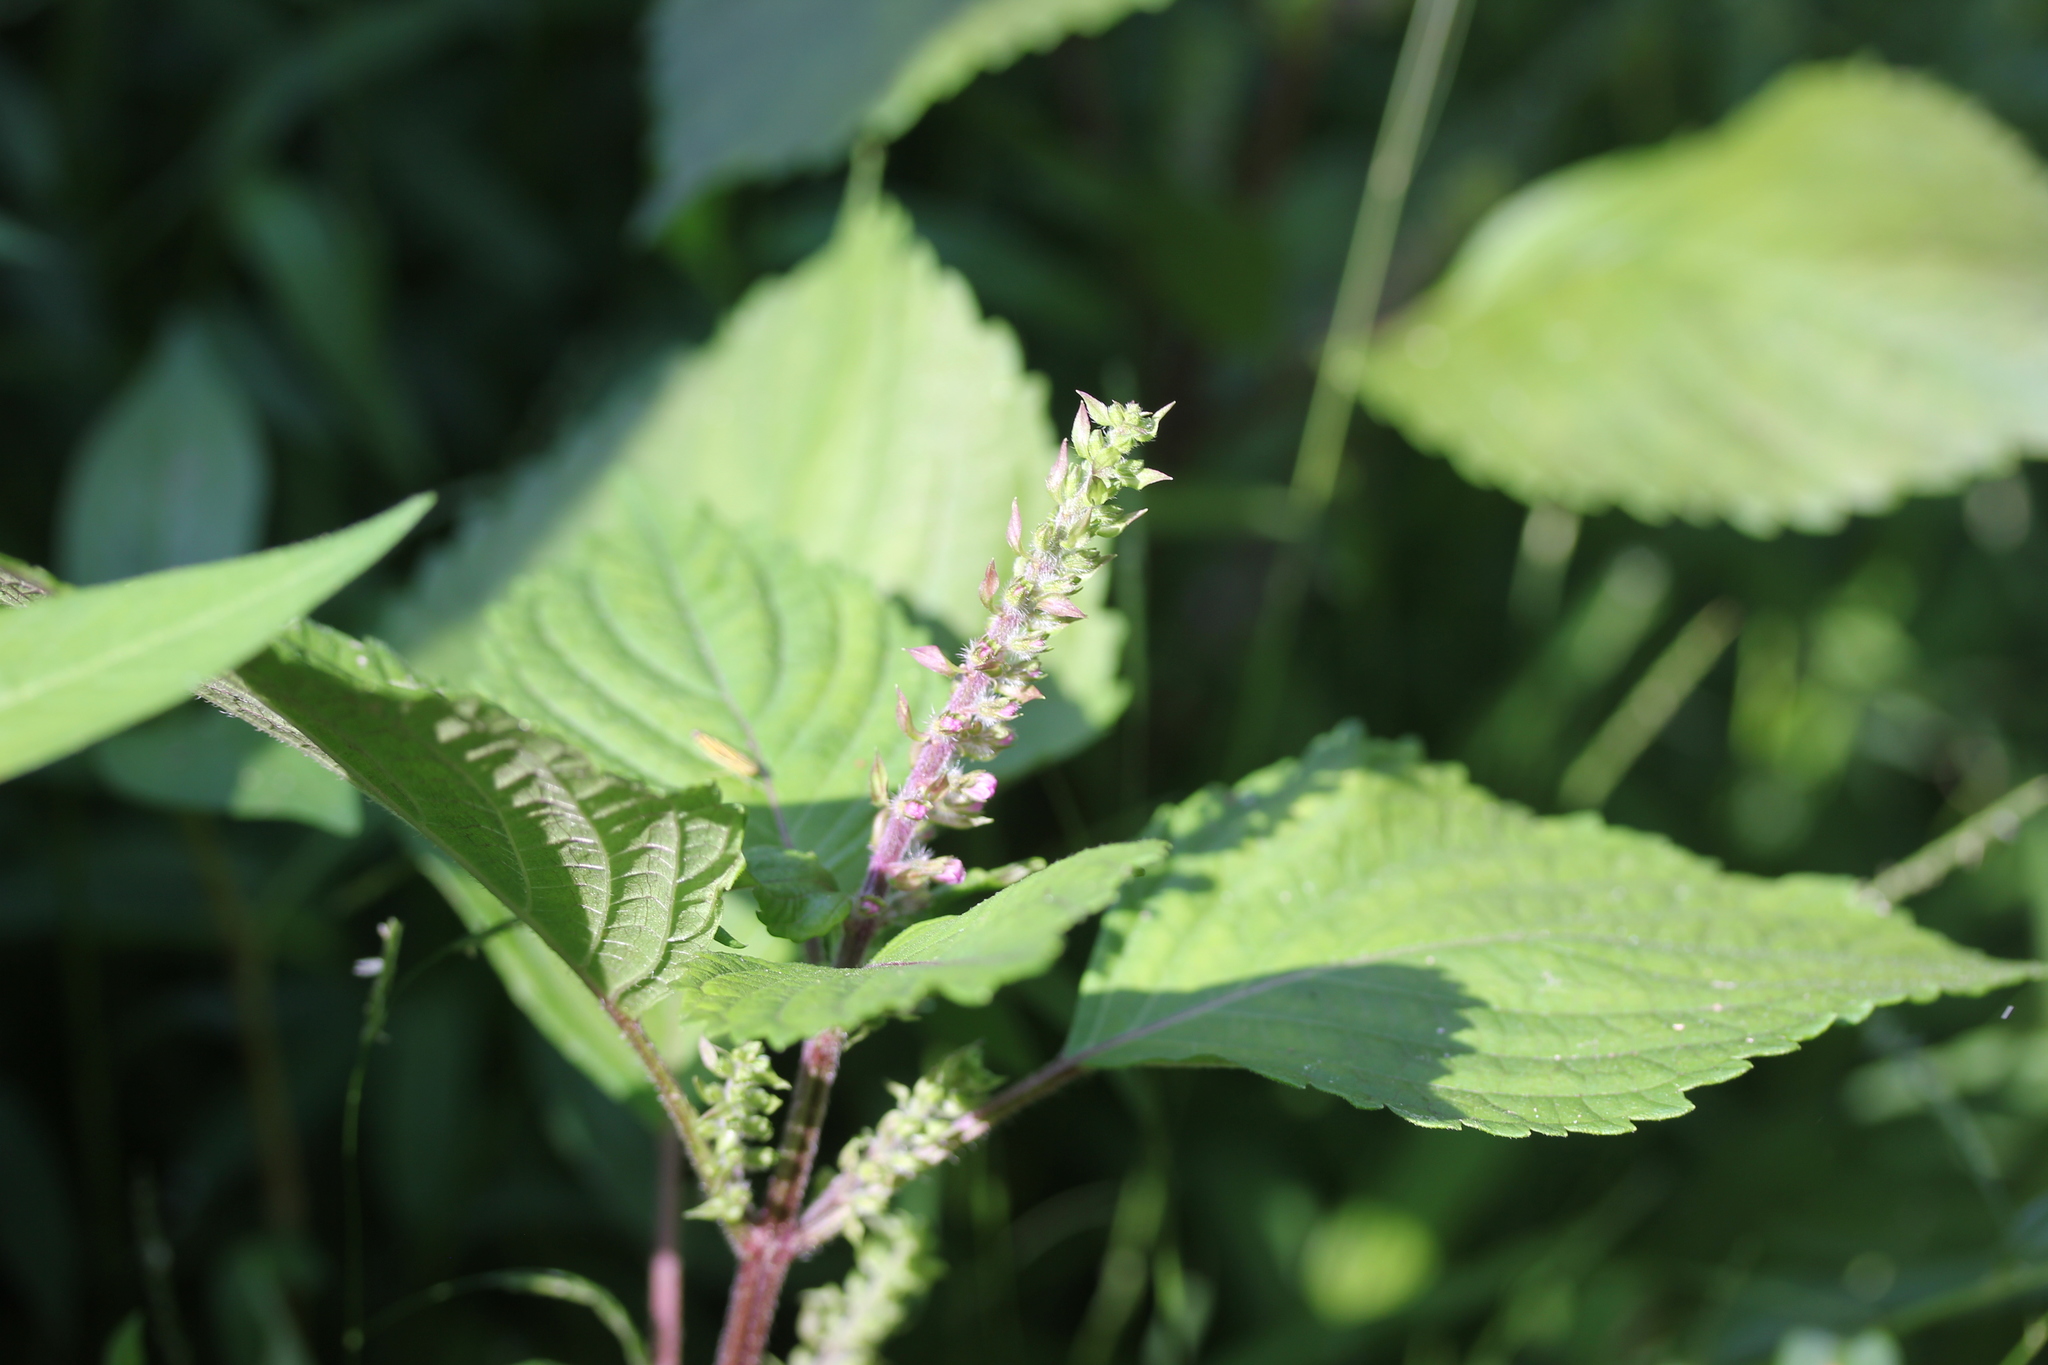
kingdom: Plantae
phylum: Tracheophyta
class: Magnoliopsida
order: Lamiales
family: Lamiaceae
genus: Perilla
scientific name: Perilla frutescens
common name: Perilla
